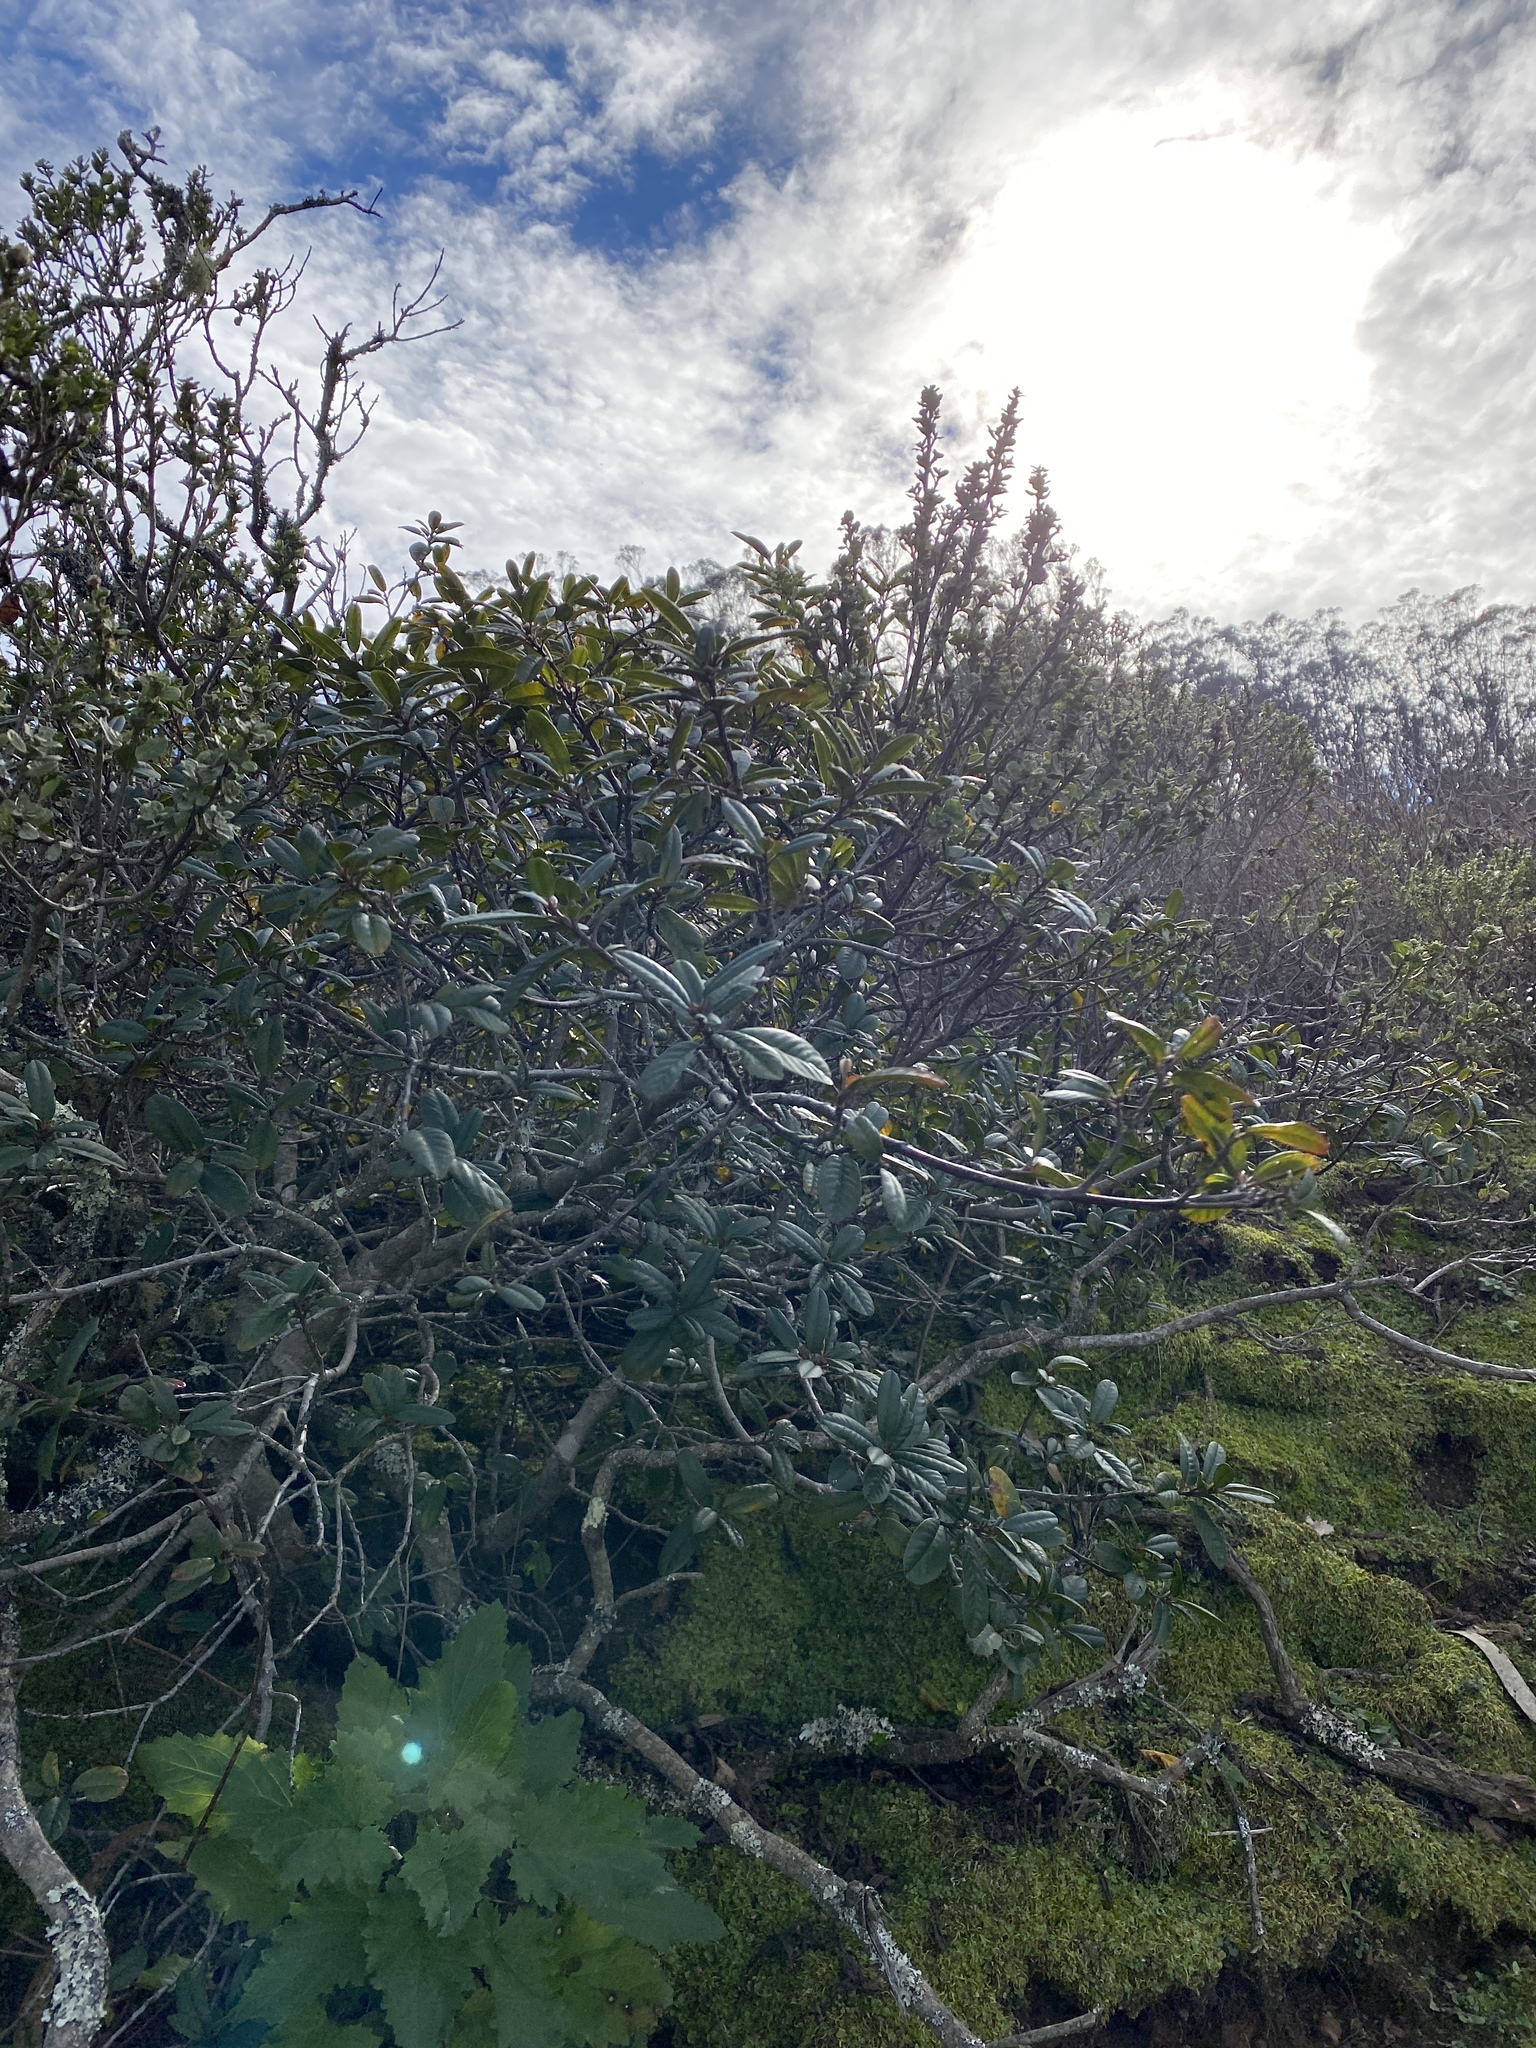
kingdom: Plantae
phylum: Tracheophyta
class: Magnoliopsida
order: Rosales
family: Rhamnaceae
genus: Frangula
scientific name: Frangula californica
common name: California buckthorn
